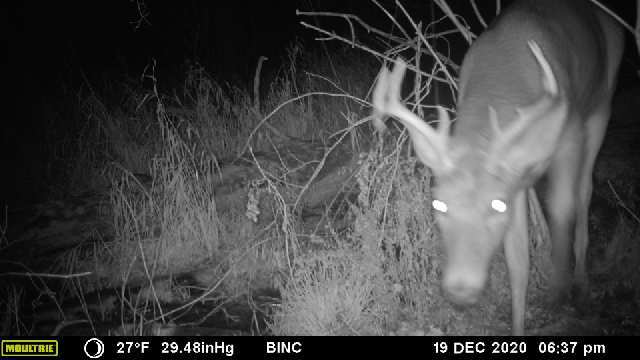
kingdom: Animalia
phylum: Chordata
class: Mammalia
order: Artiodactyla
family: Cervidae
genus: Odocoileus
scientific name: Odocoileus virginianus
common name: White-tailed deer
